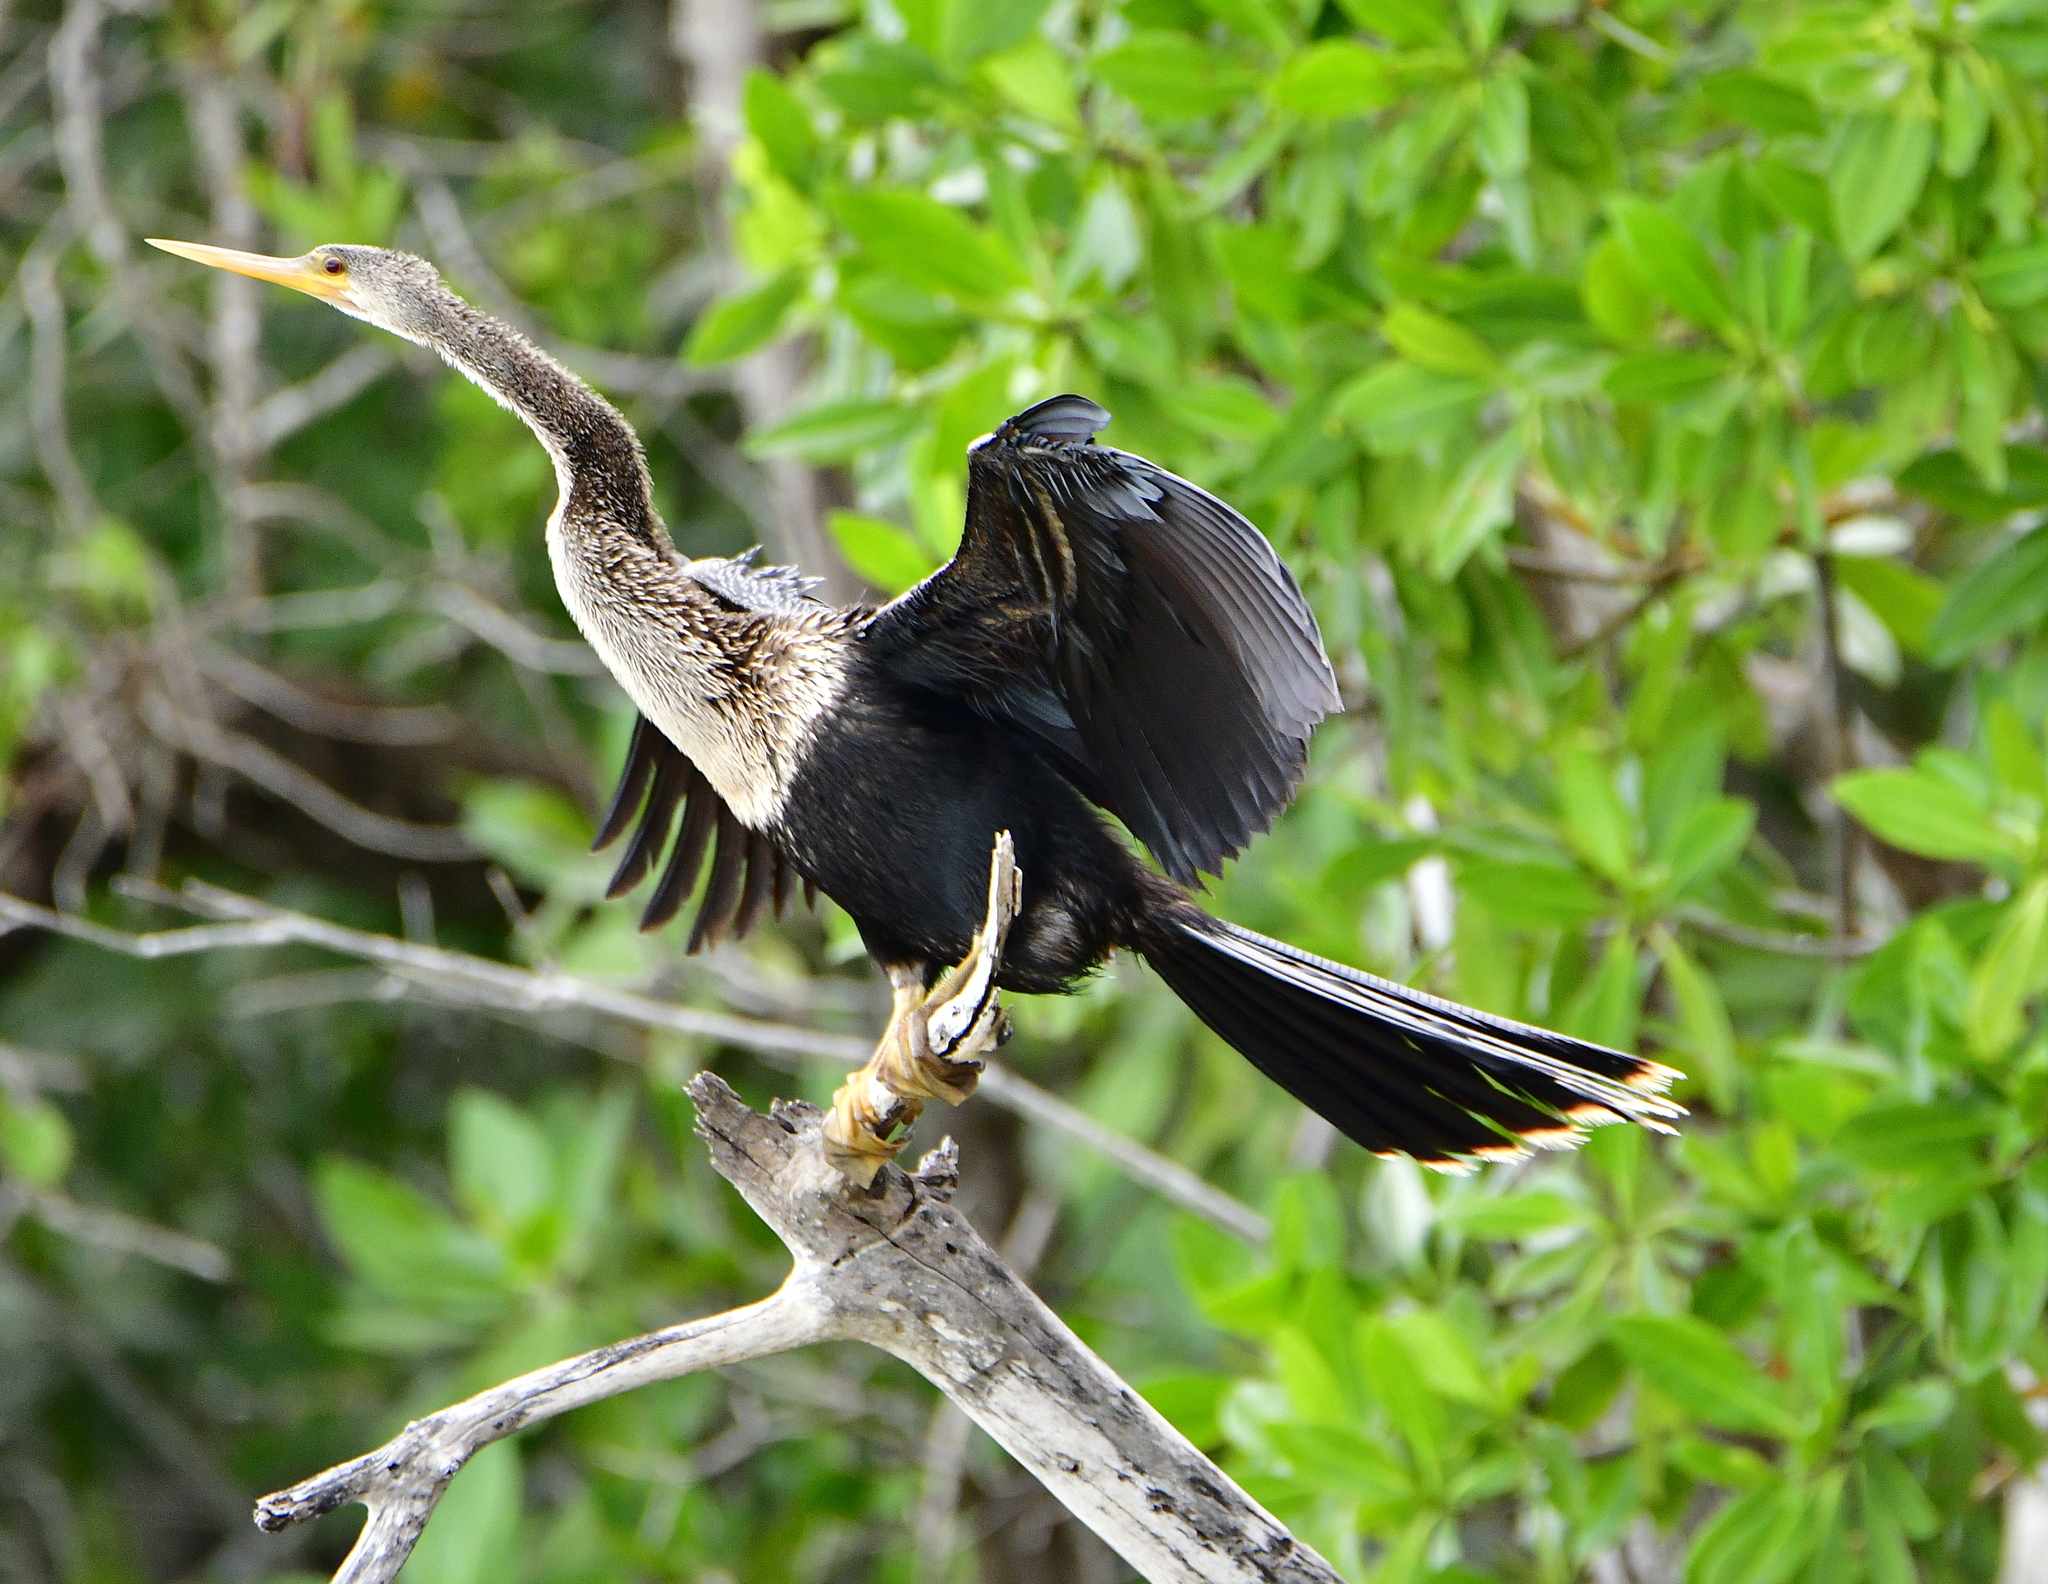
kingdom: Animalia
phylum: Chordata
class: Aves
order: Suliformes
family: Anhingidae
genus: Anhinga
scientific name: Anhinga anhinga
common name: Anhinga
